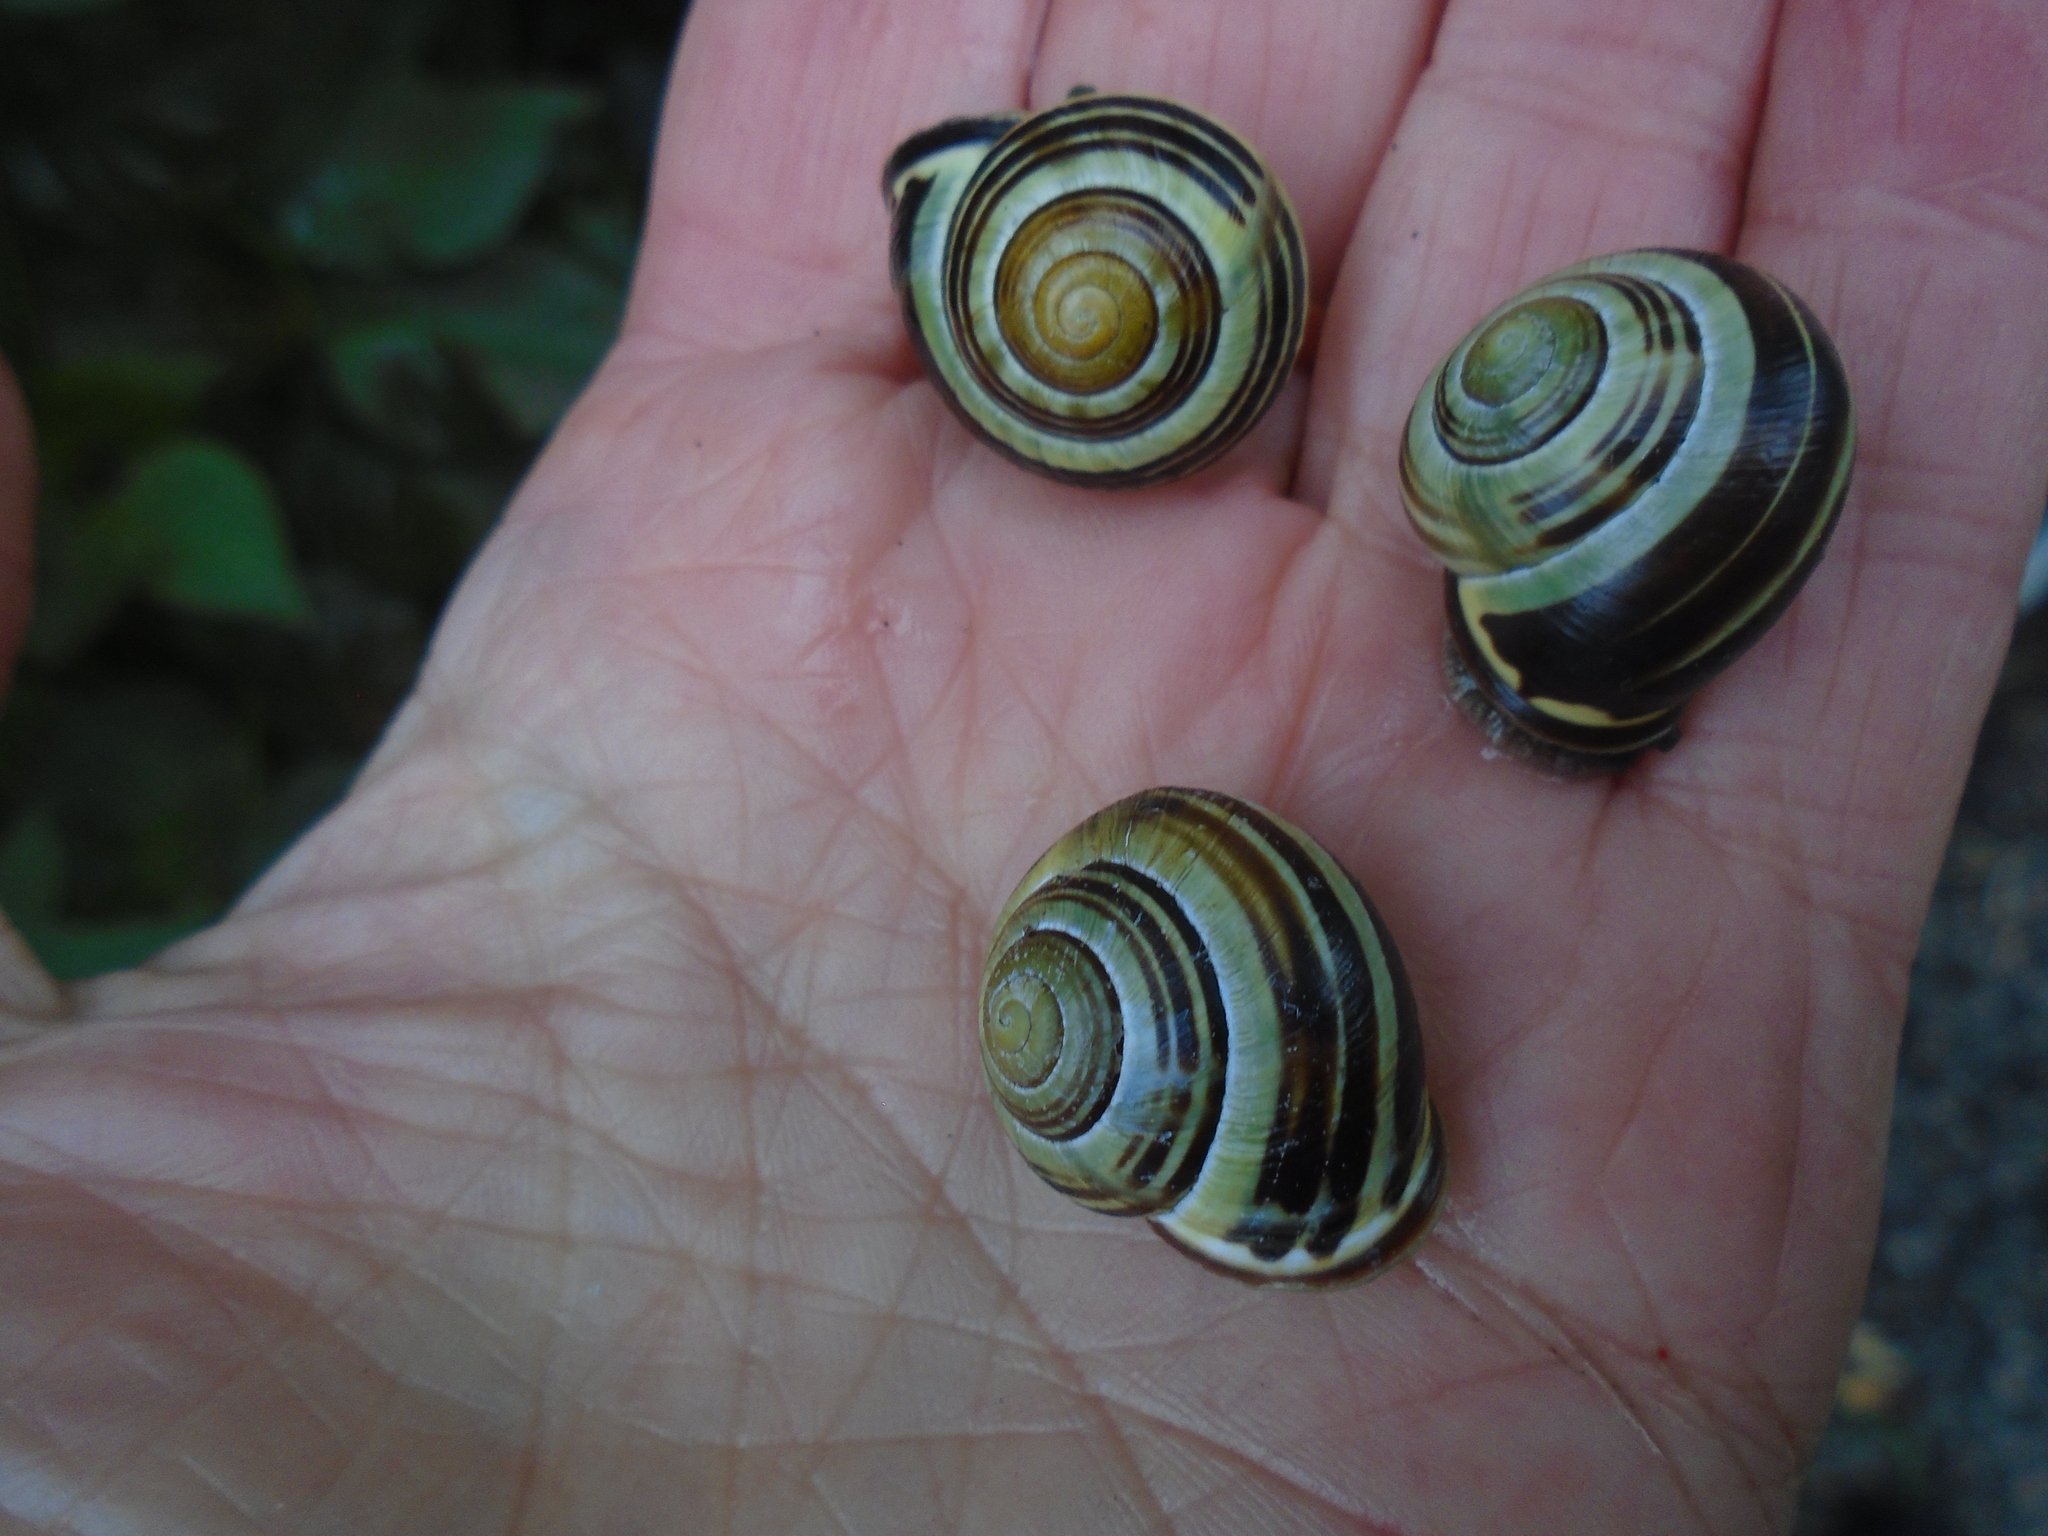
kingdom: Animalia
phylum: Mollusca
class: Gastropoda
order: Stylommatophora
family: Helicidae
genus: Cepaea
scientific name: Cepaea nemoralis
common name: Grovesnail
